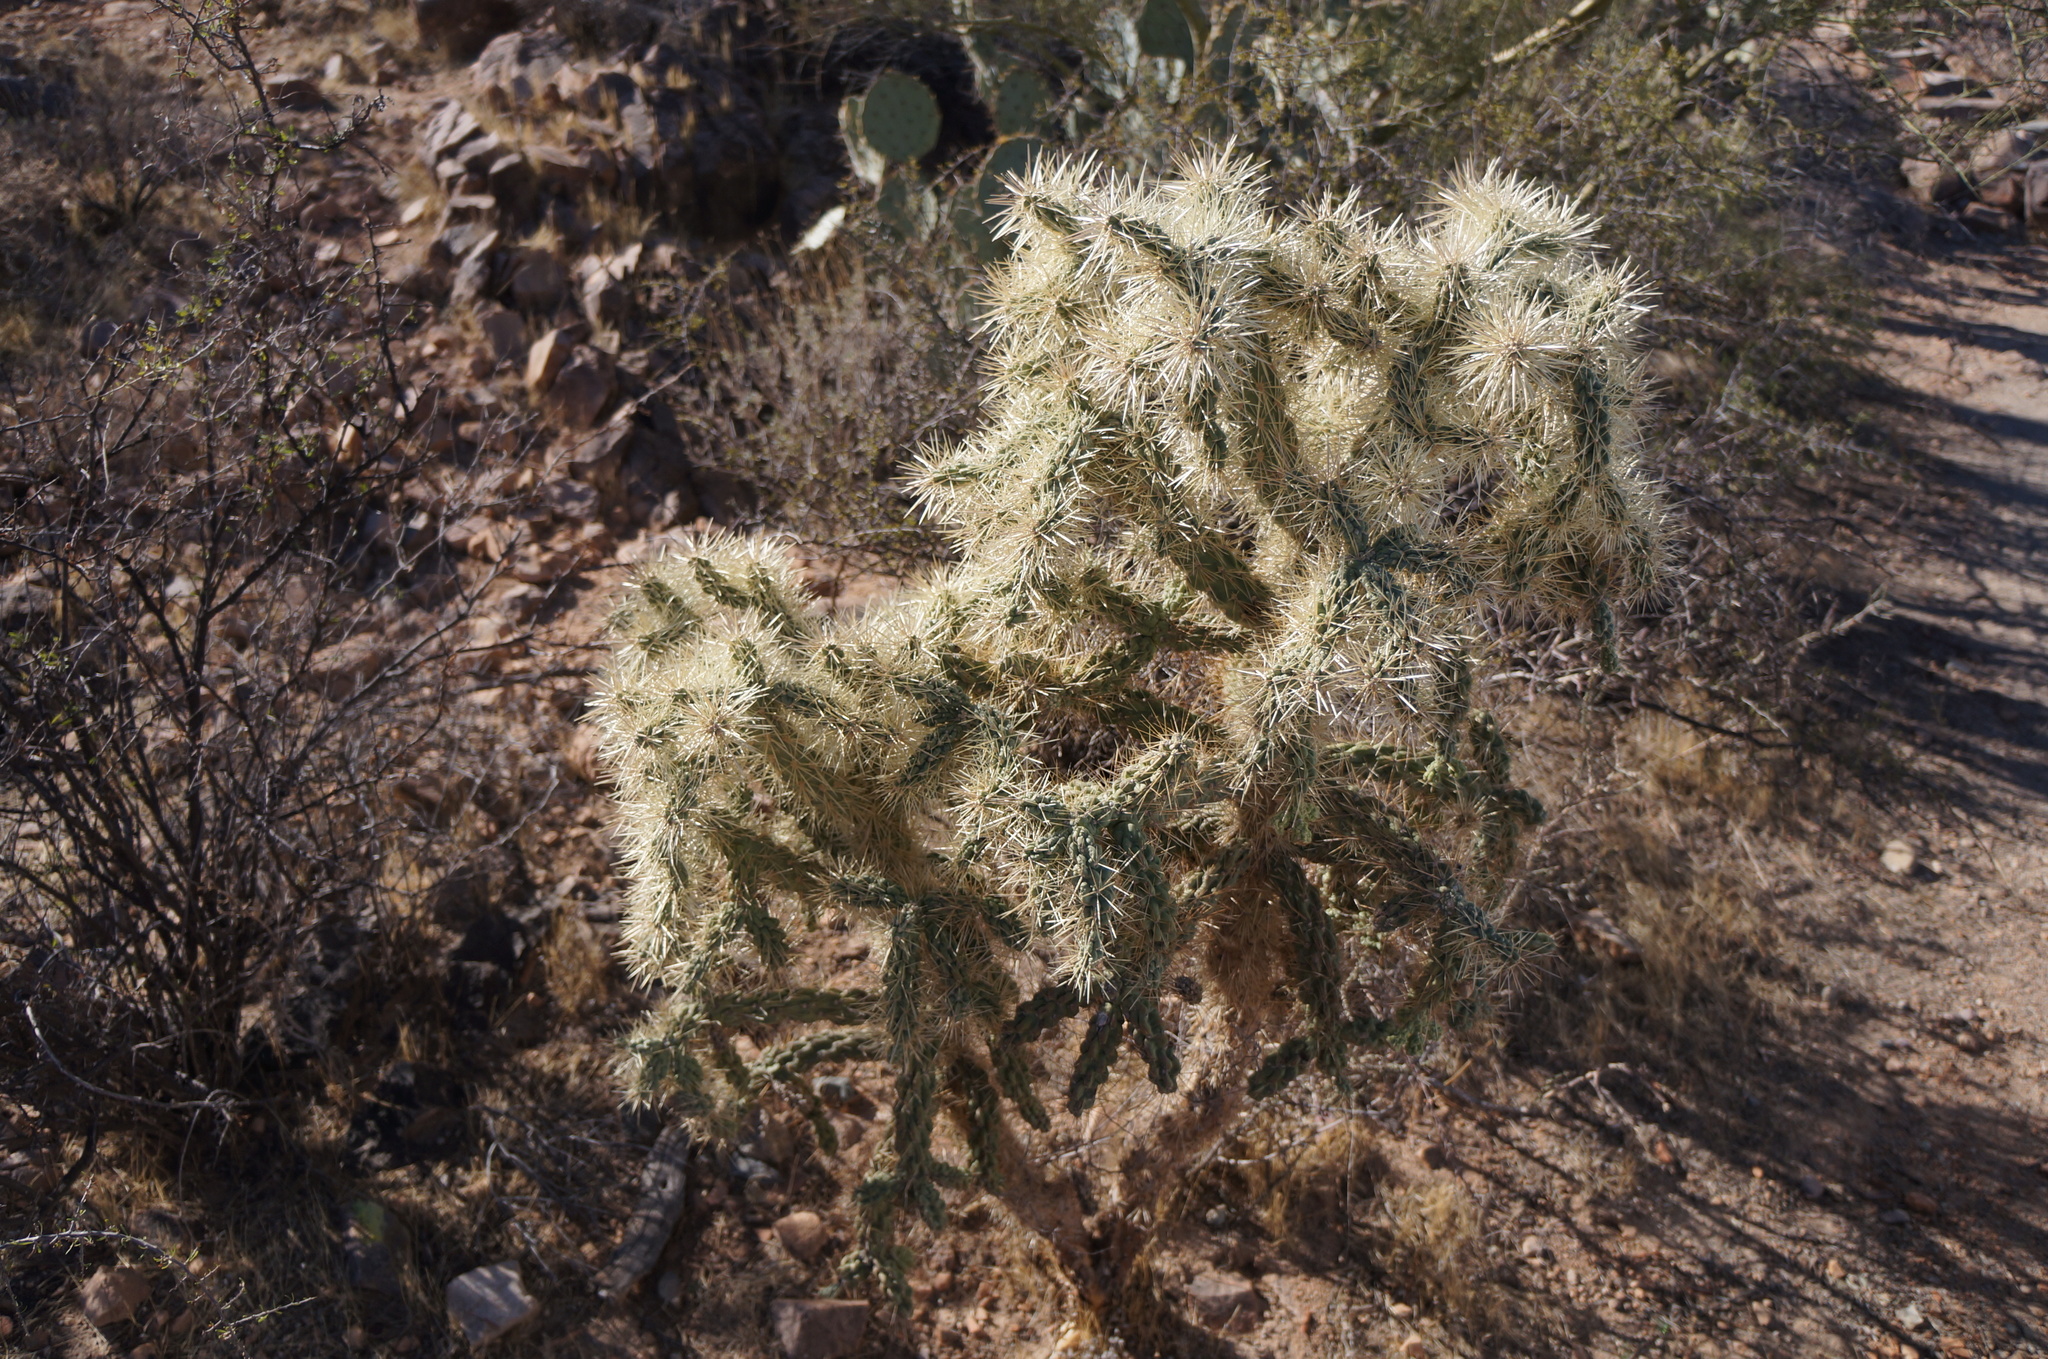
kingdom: Plantae
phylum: Tracheophyta
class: Magnoliopsida
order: Caryophyllales
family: Cactaceae
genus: Cylindropuntia
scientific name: Cylindropuntia fulgida
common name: Jumping cholla
